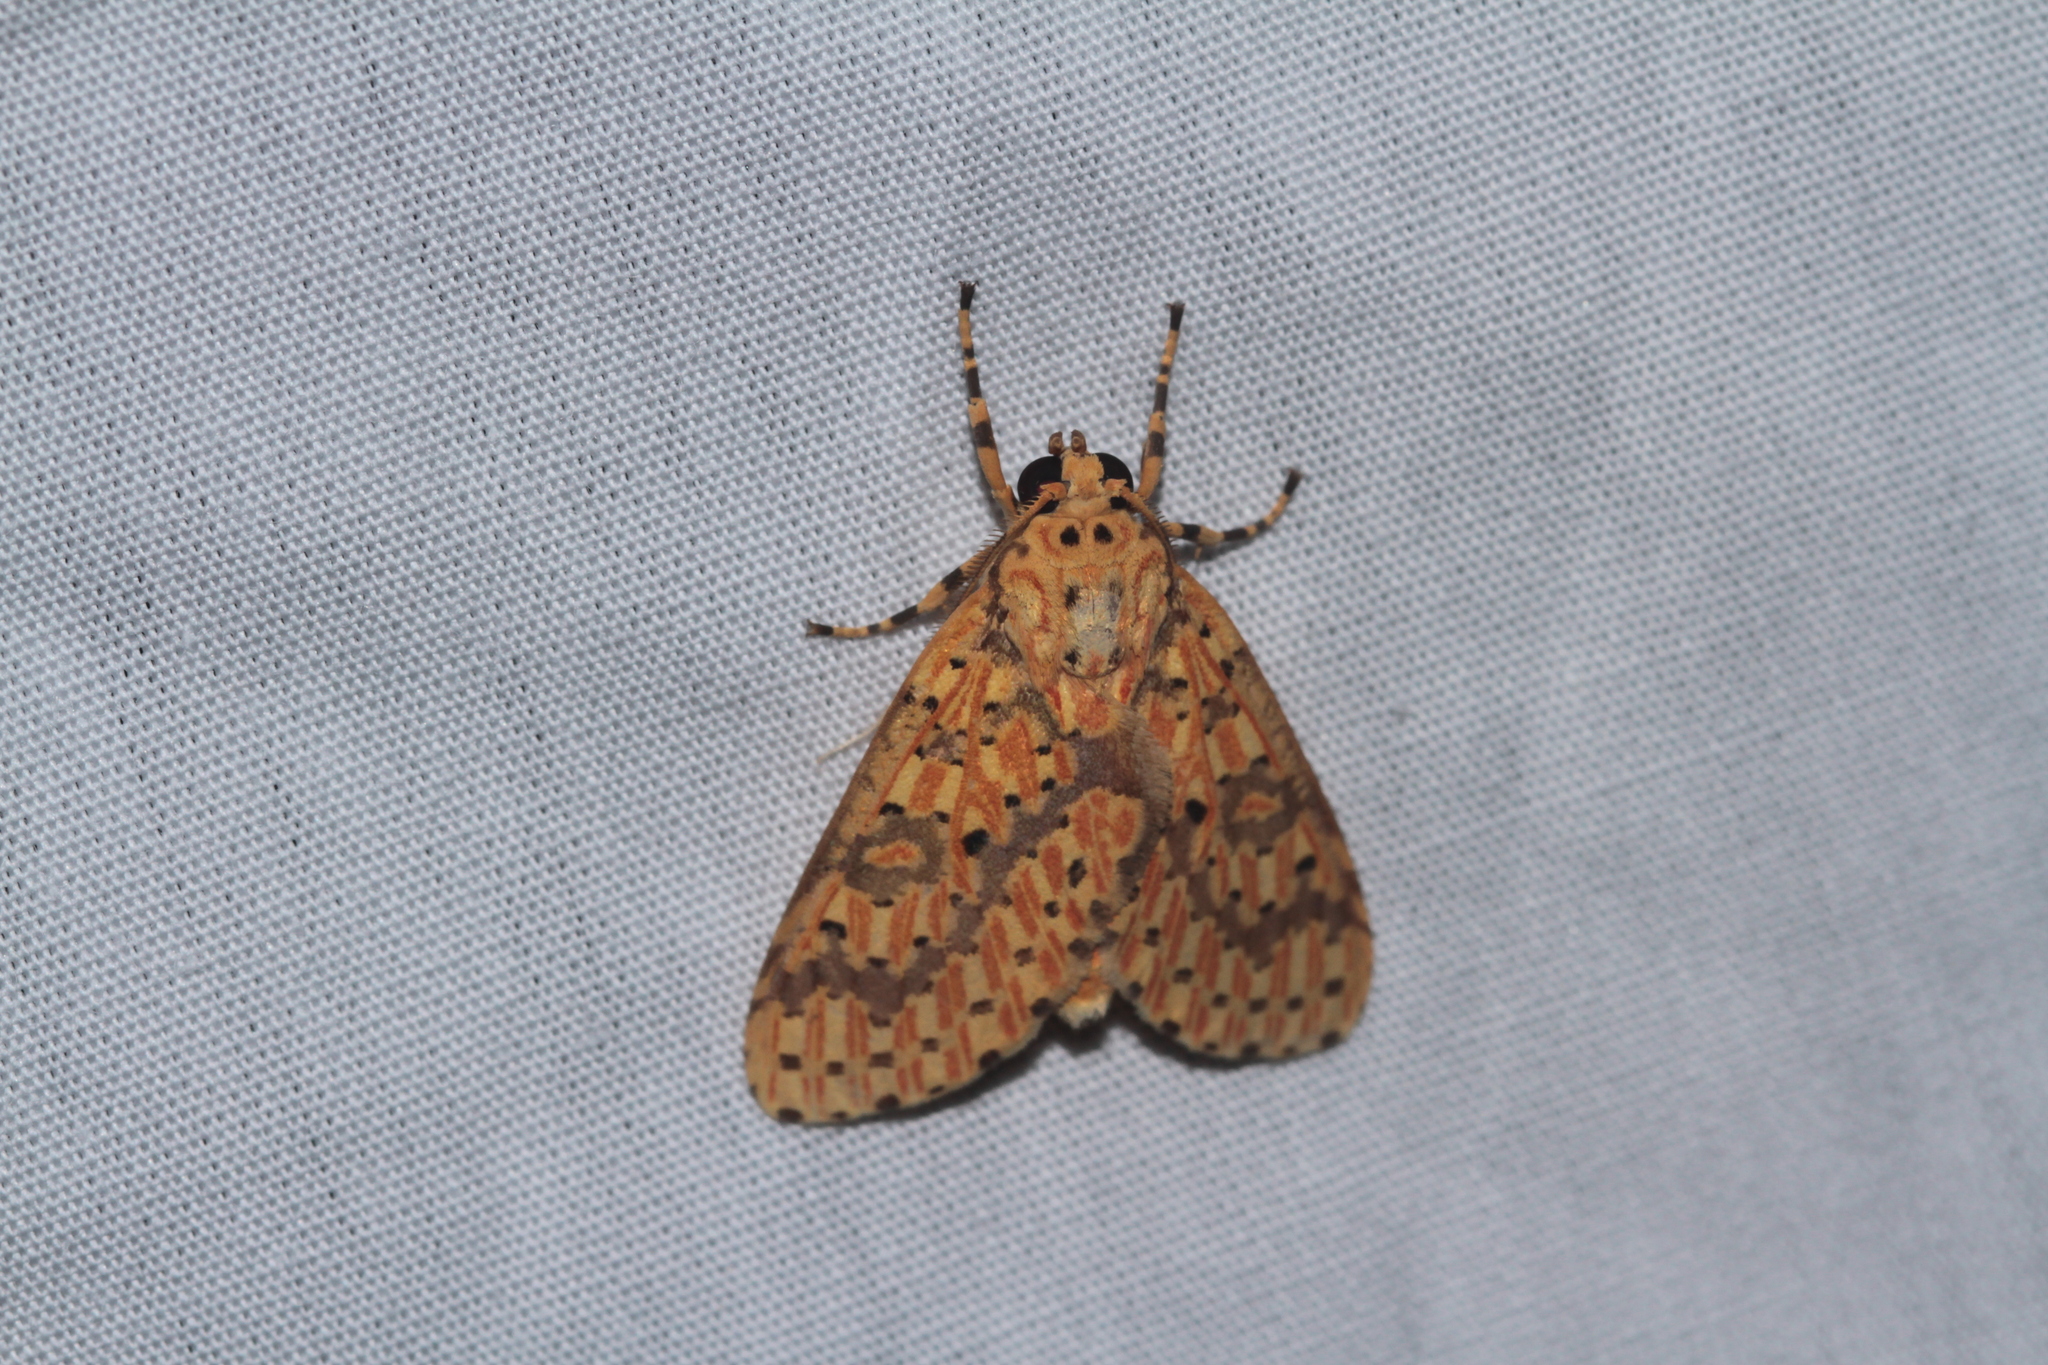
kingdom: Animalia
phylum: Arthropoda
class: Insecta
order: Lepidoptera
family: Erebidae
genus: Eriostepta
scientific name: Eriostepta fulvescens
